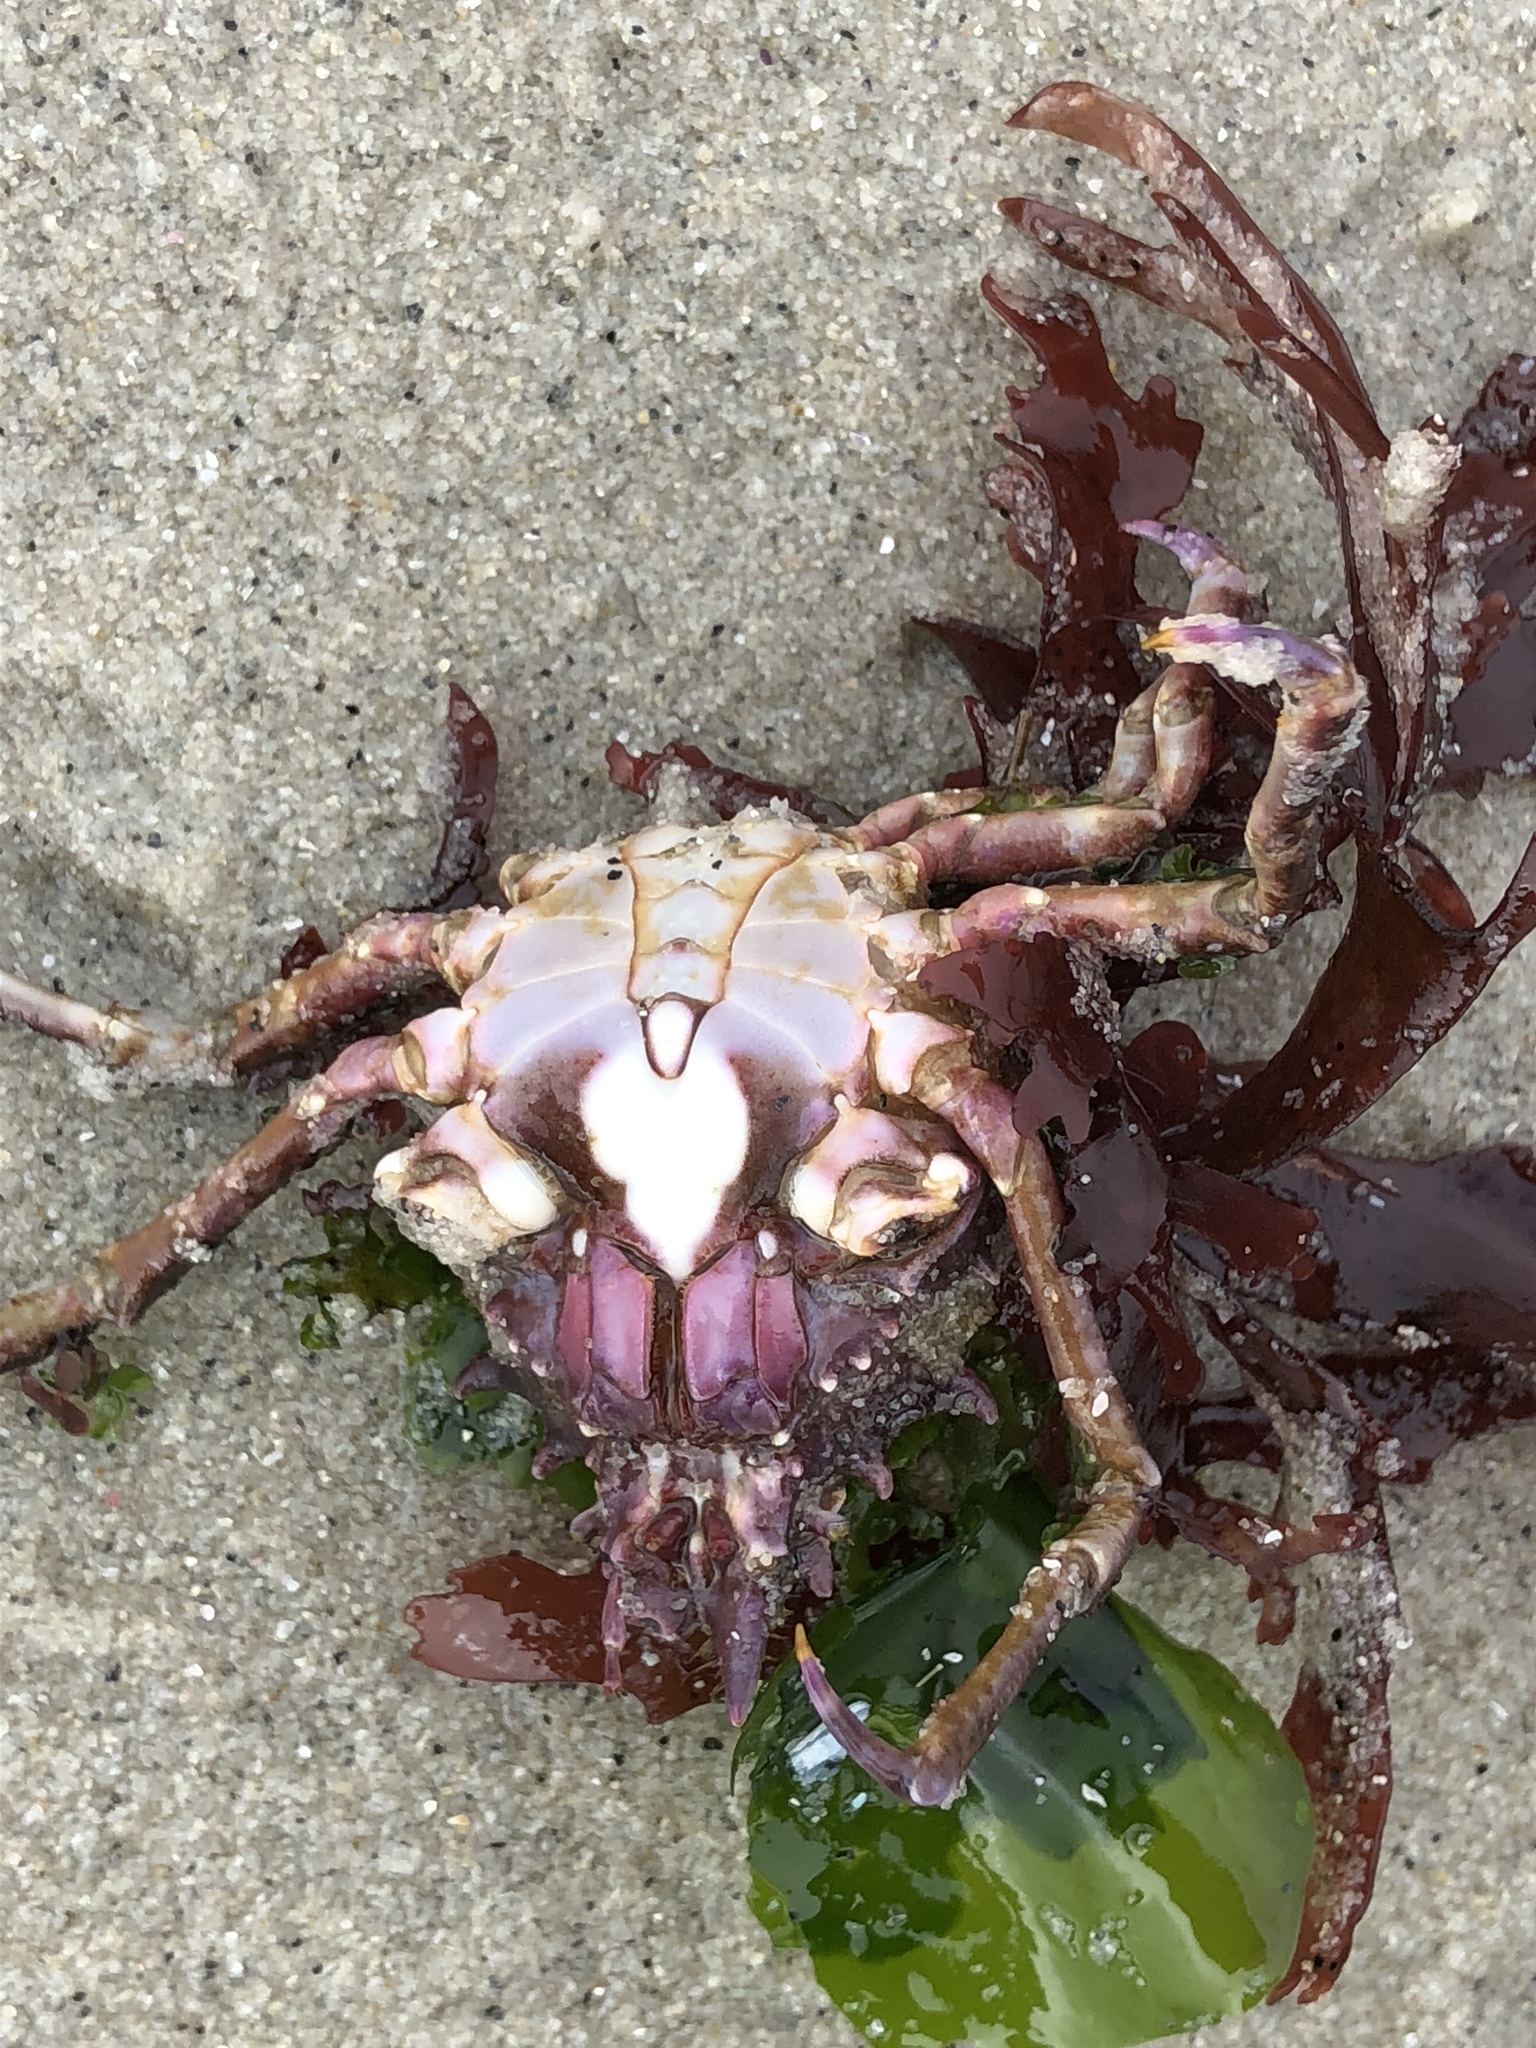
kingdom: Animalia
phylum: Arthropoda
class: Malacostraca
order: Decapoda
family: Epialtidae
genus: Pugettia
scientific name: Pugettia richii
